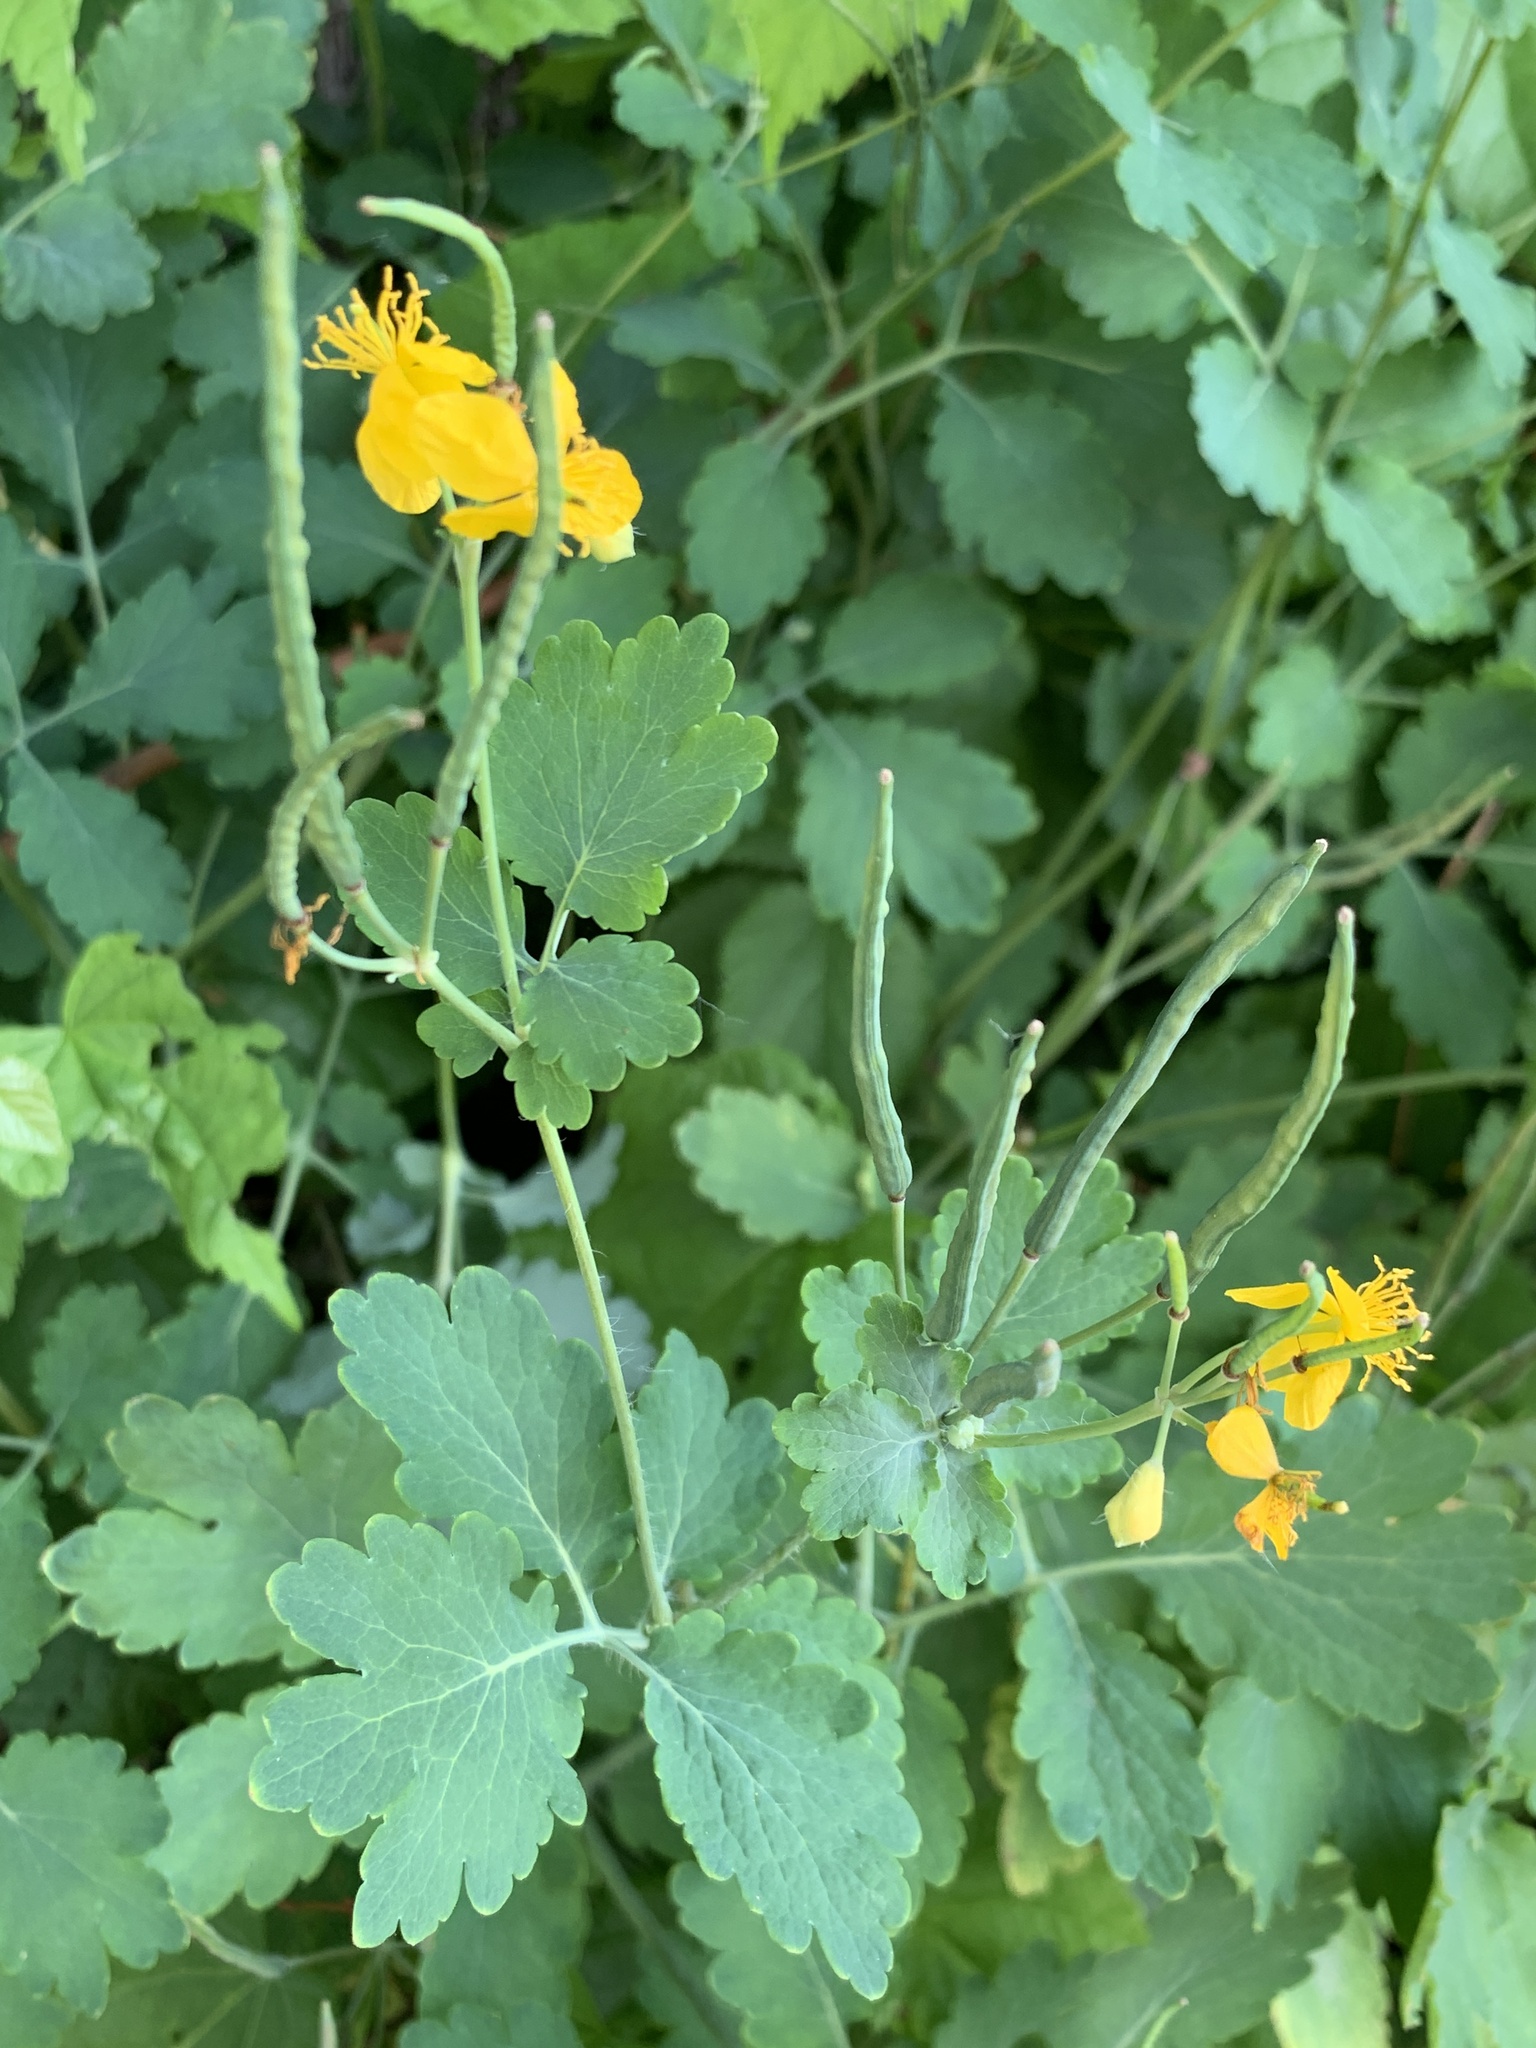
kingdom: Plantae
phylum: Tracheophyta
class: Magnoliopsida
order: Ranunculales
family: Papaveraceae
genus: Chelidonium
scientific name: Chelidonium majus
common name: Greater celandine
